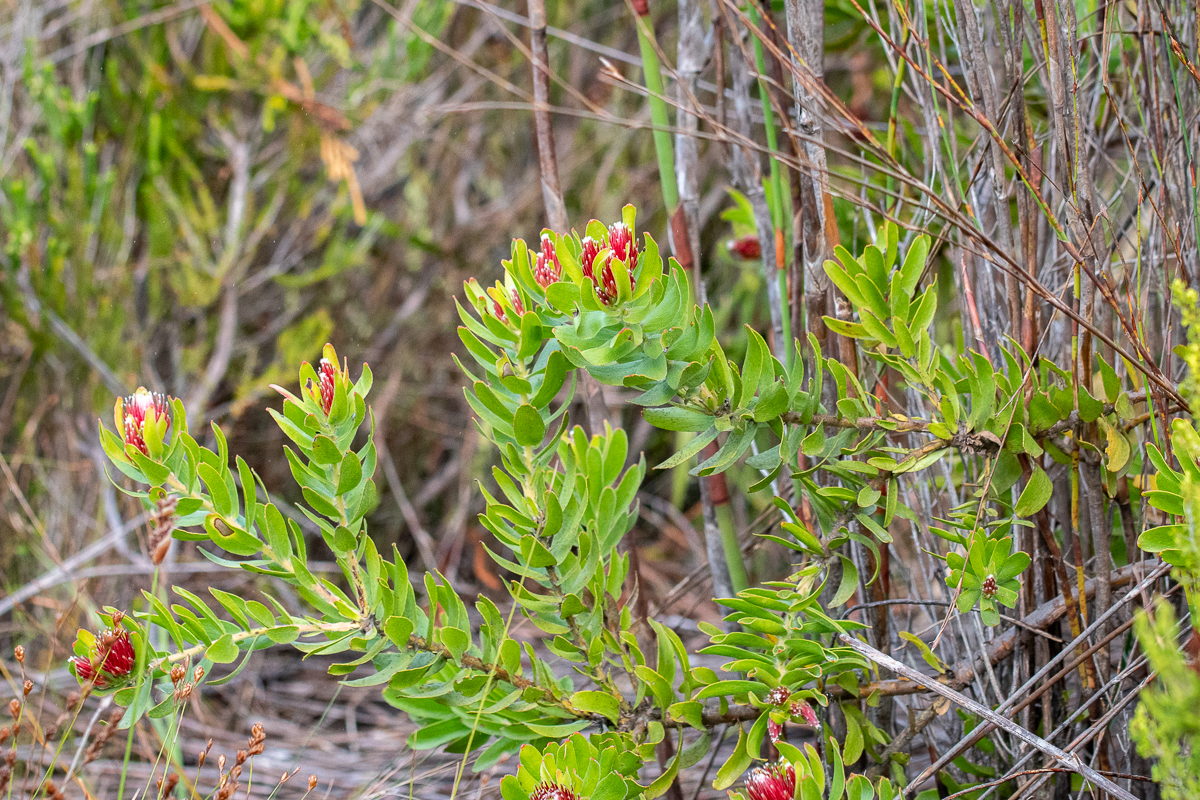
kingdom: Plantae
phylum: Tracheophyta
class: Magnoliopsida
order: Proteales
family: Proteaceae
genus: Leucospermum
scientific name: Leucospermum oleifolium
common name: Matches
